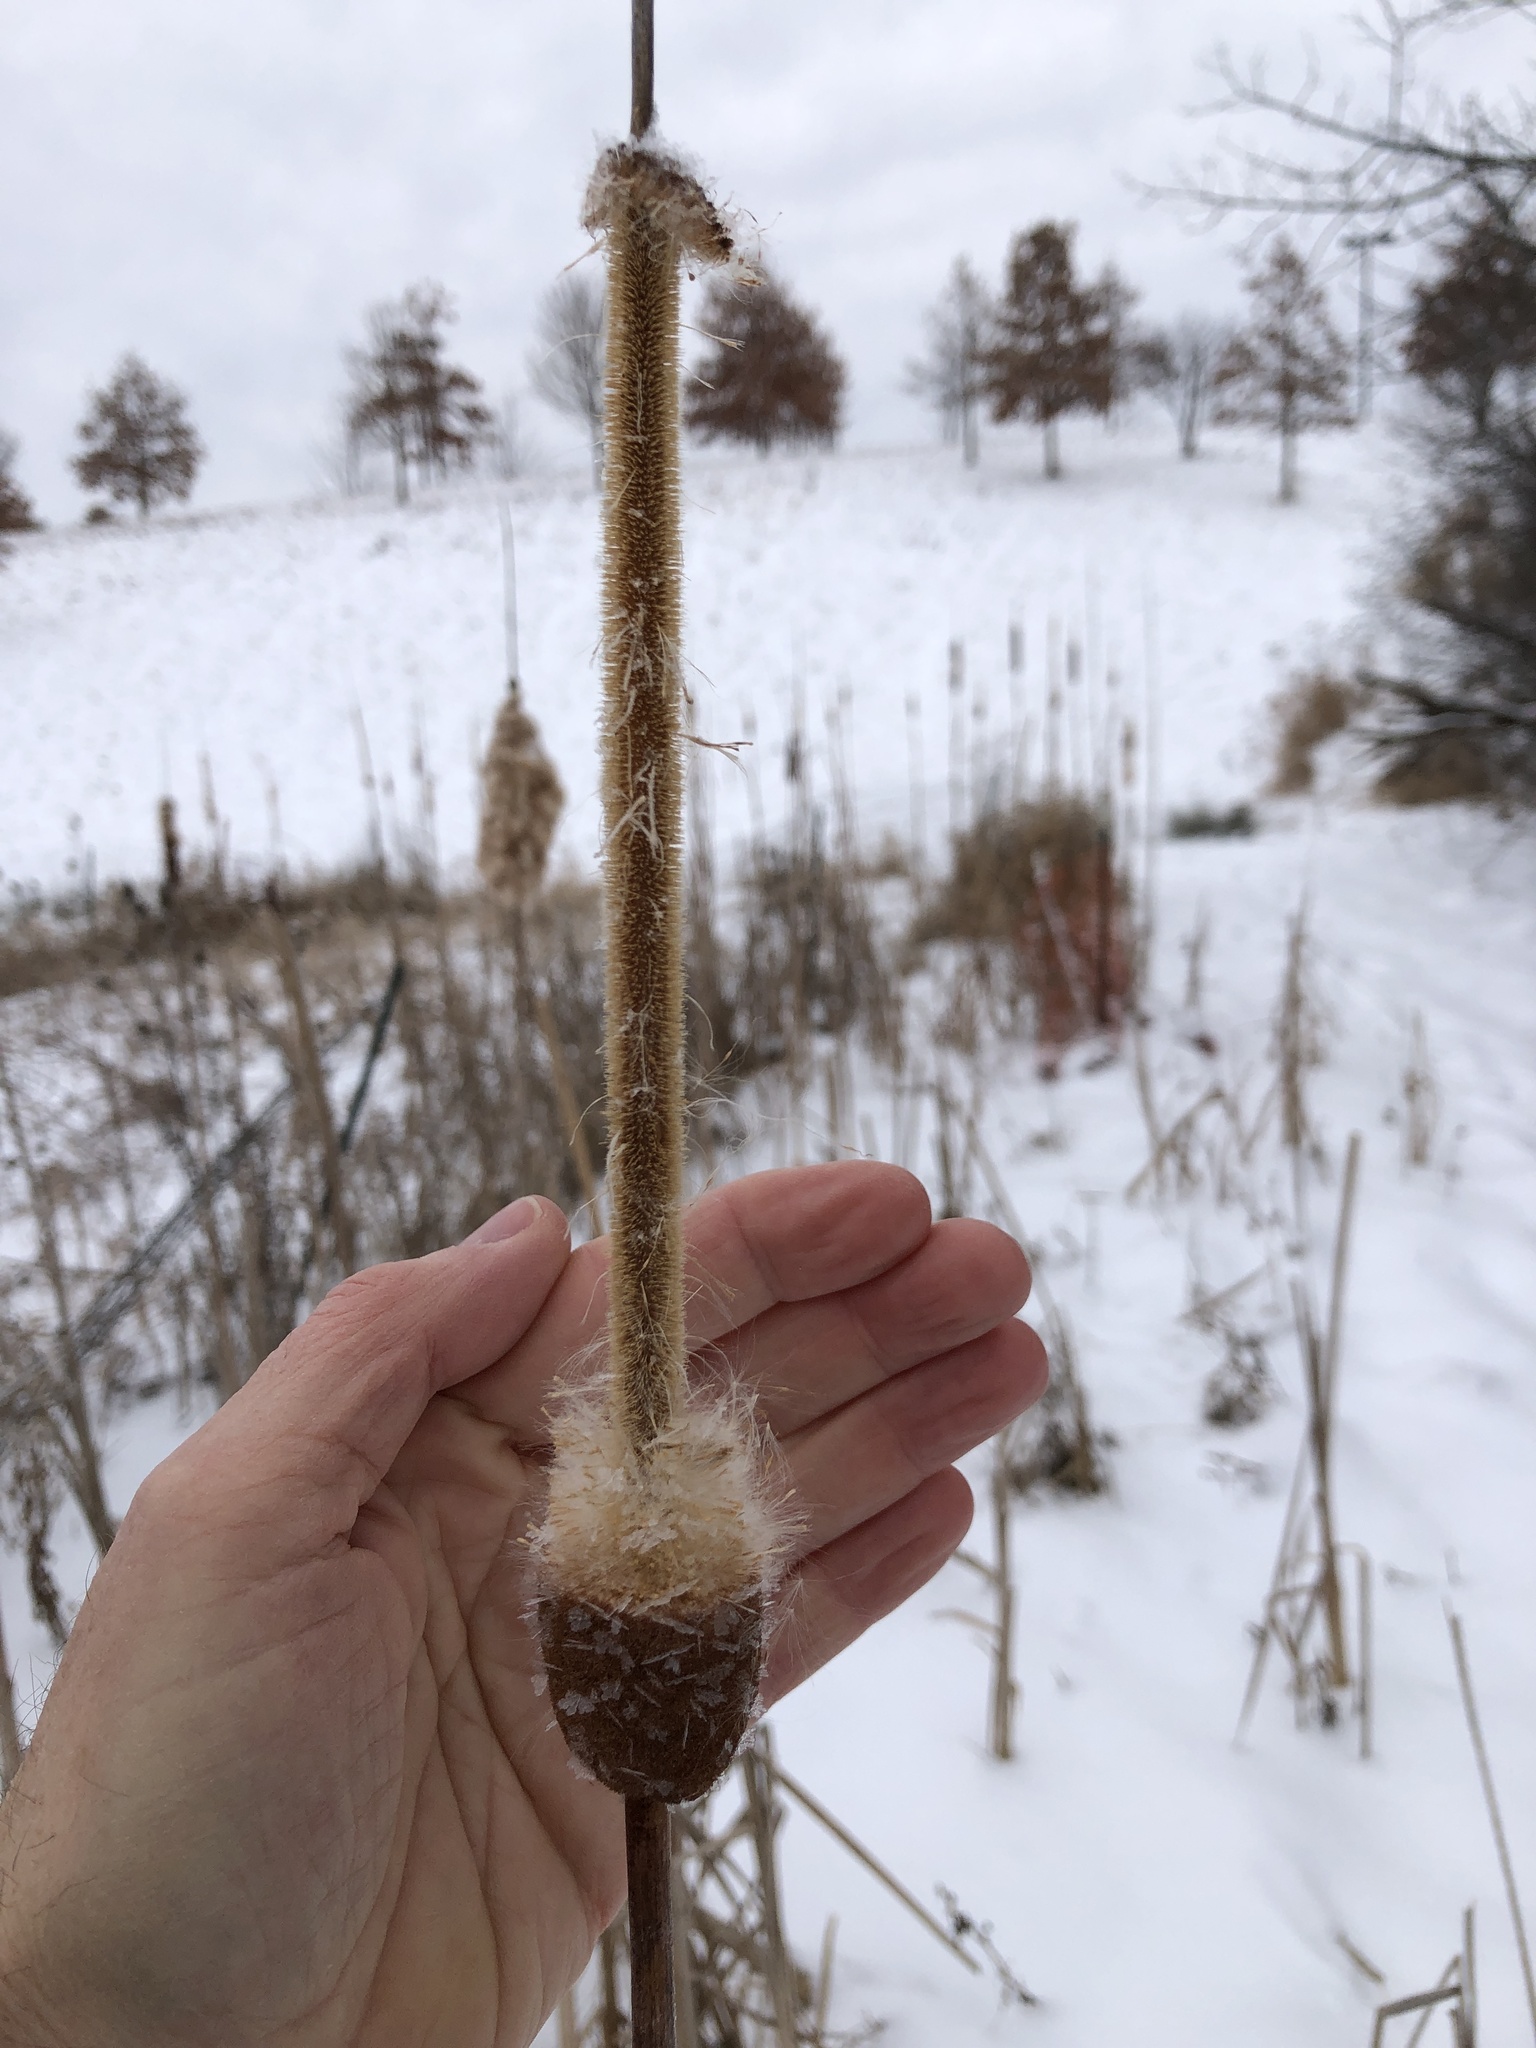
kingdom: Plantae
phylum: Tracheophyta
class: Liliopsida
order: Poales
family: Typhaceae
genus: Typha
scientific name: Typha
